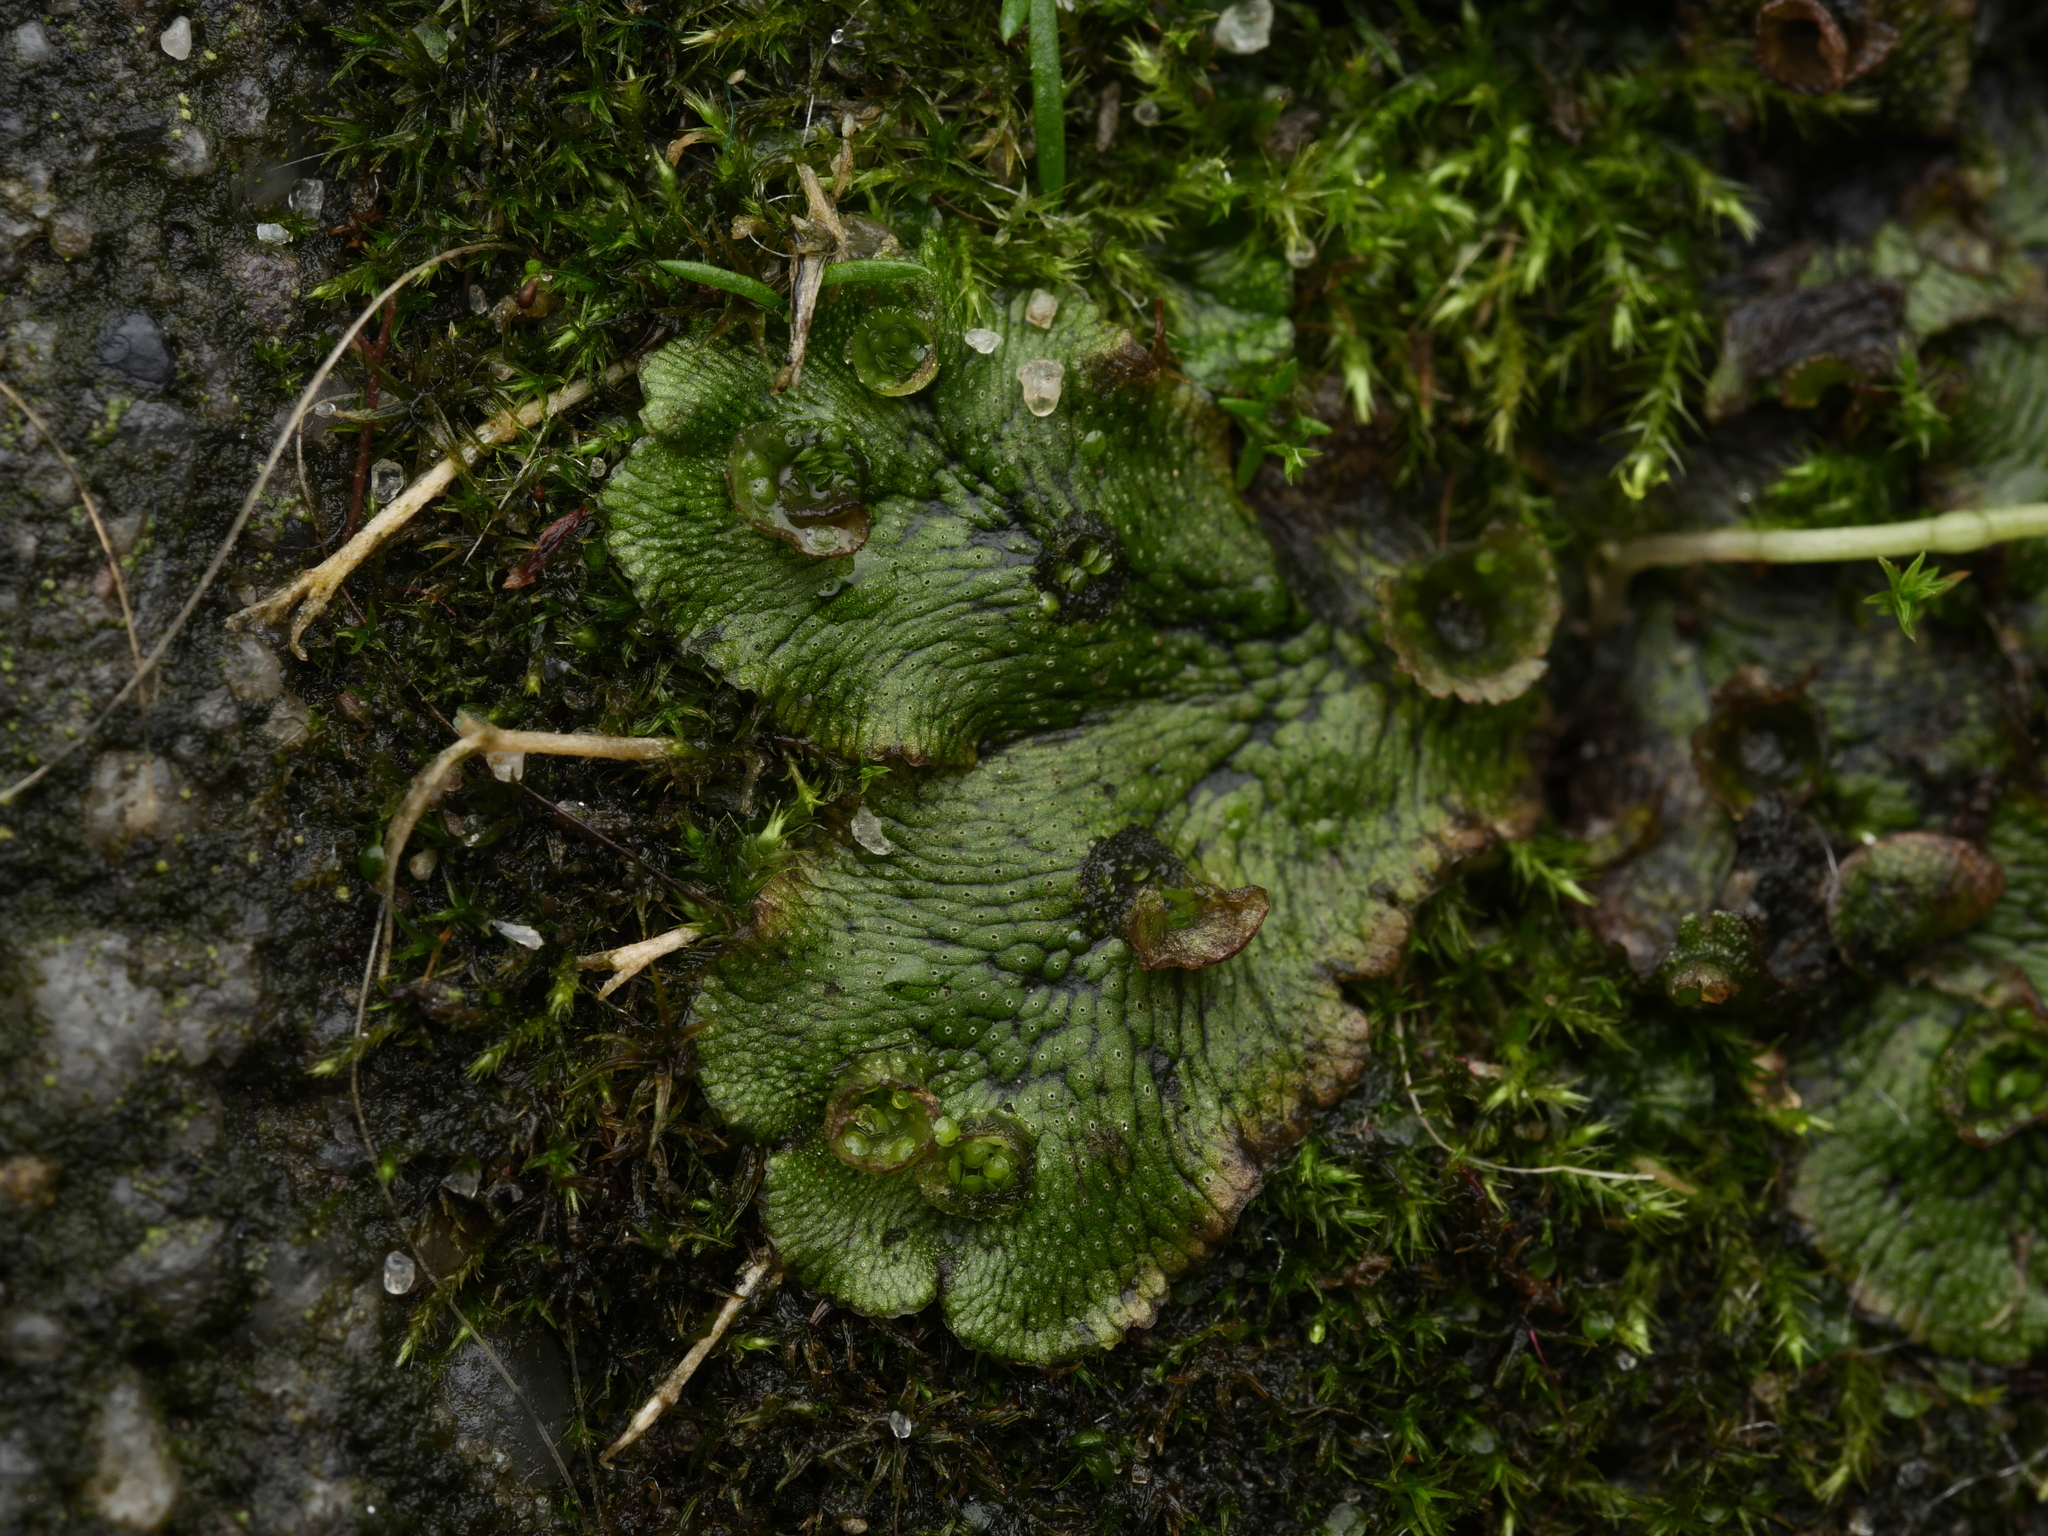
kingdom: Plantae
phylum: Marchantiophyta
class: Marchantiopsida
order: Marchantiales
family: Marchantiaceae
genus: Marchantia
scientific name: Marchantia polymorpha
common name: Common liverwort
